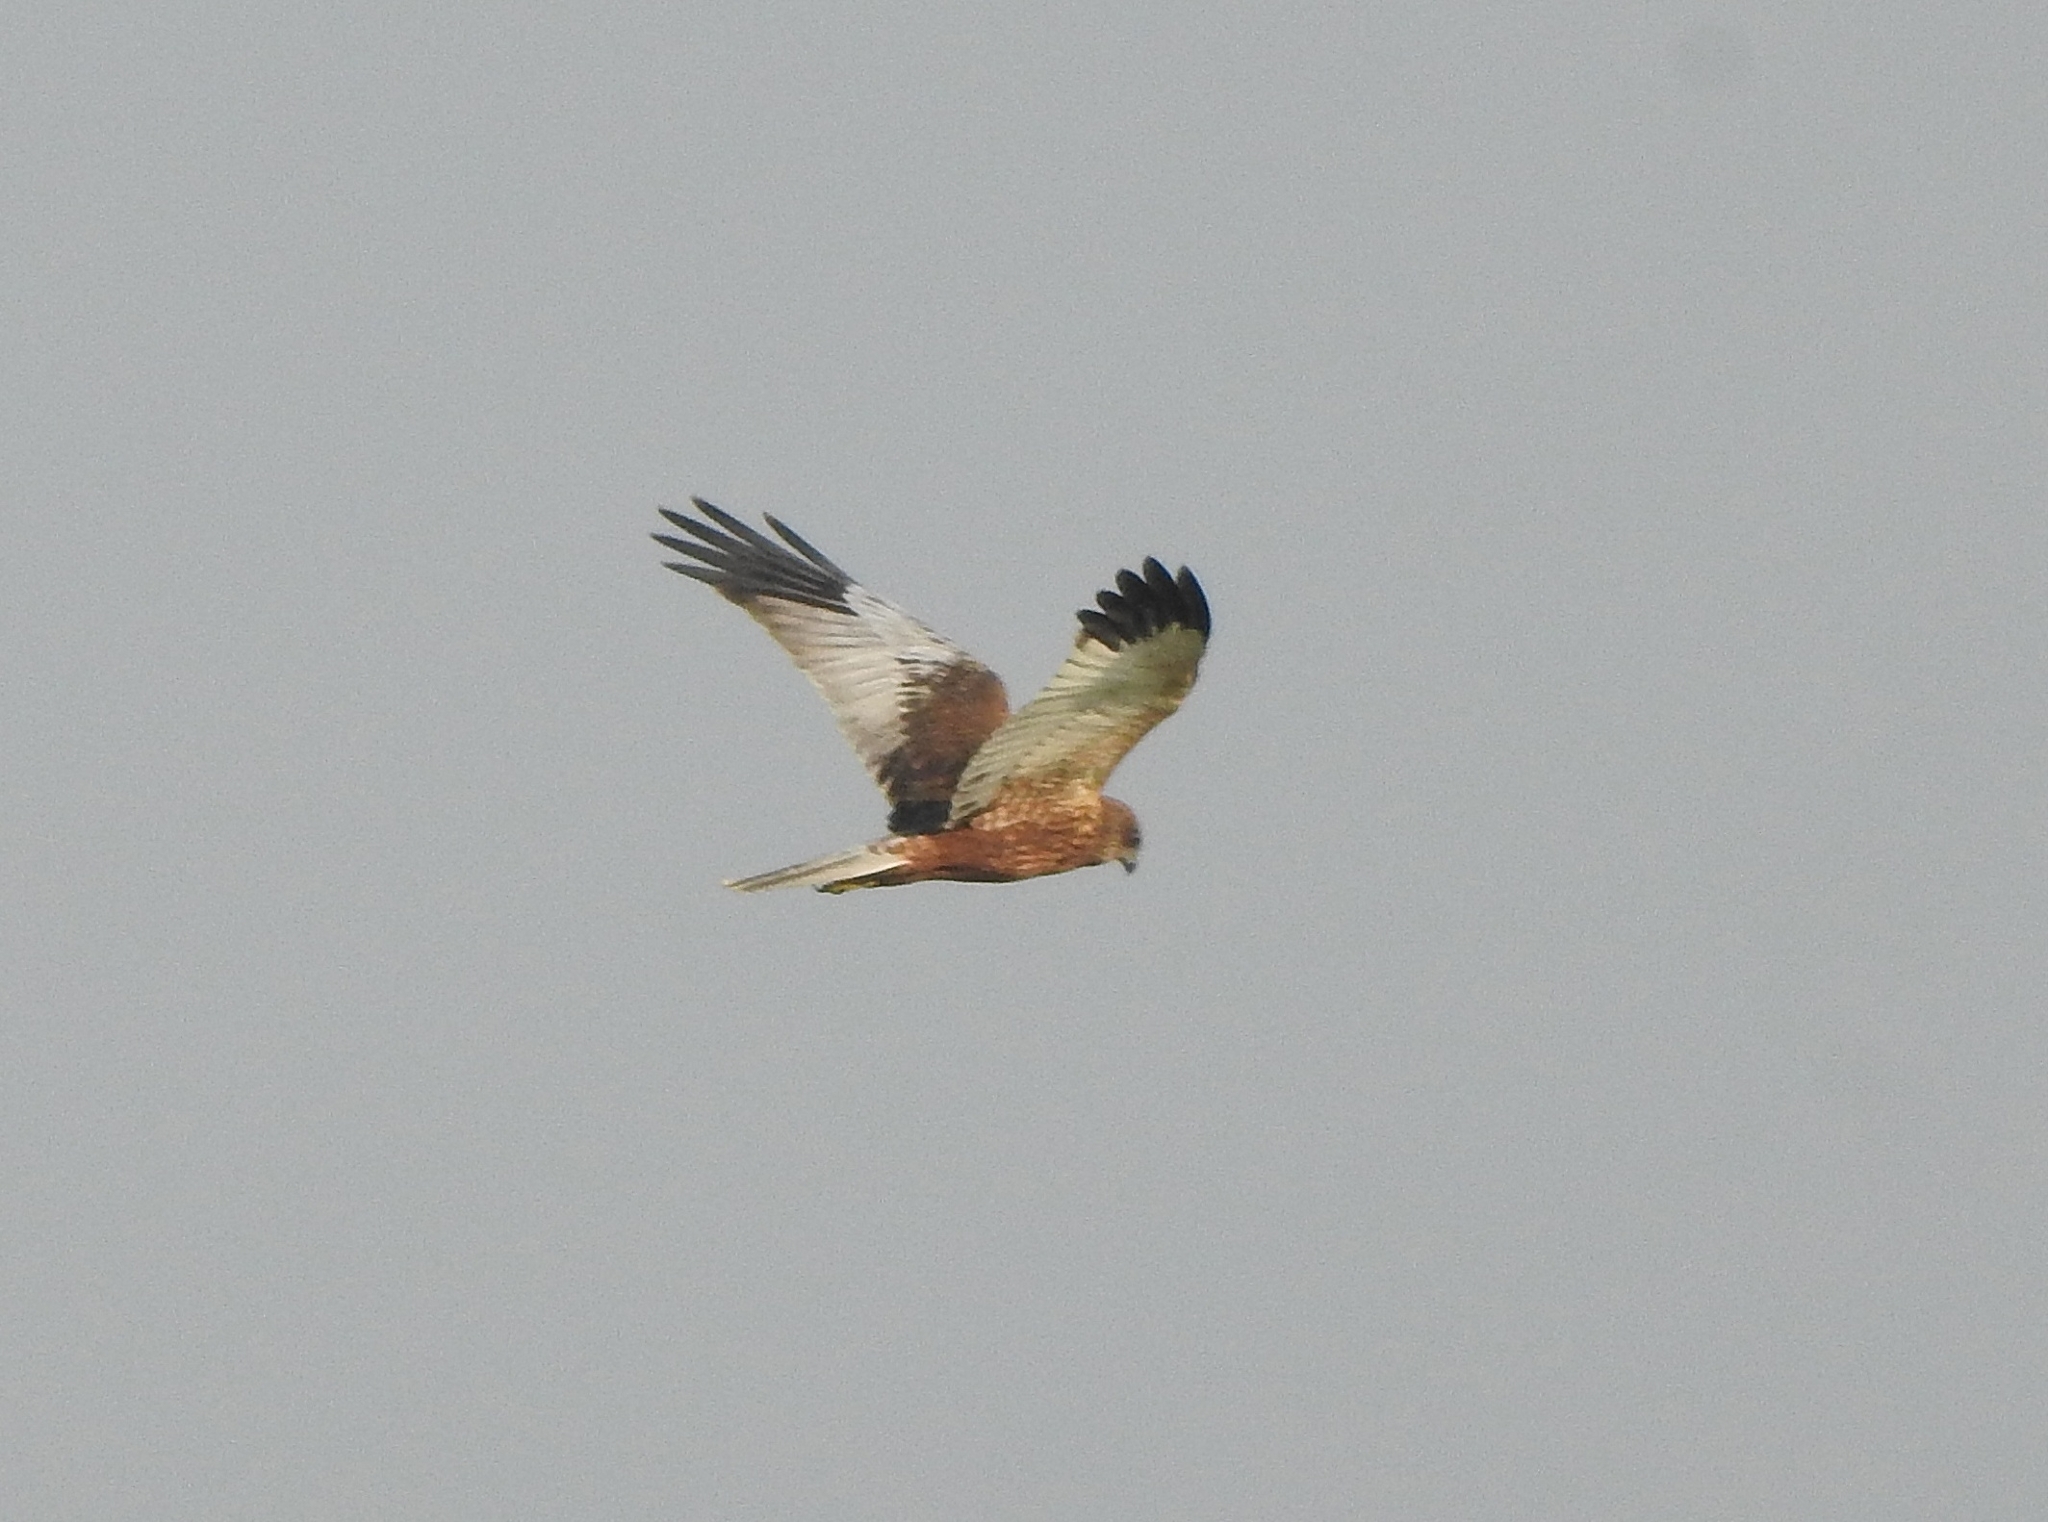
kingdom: Animalia
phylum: Chordata
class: Aves
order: Accipitriformes
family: Accipitridae
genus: Circus
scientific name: Circus aeruginosus
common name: Western marsh harrier
